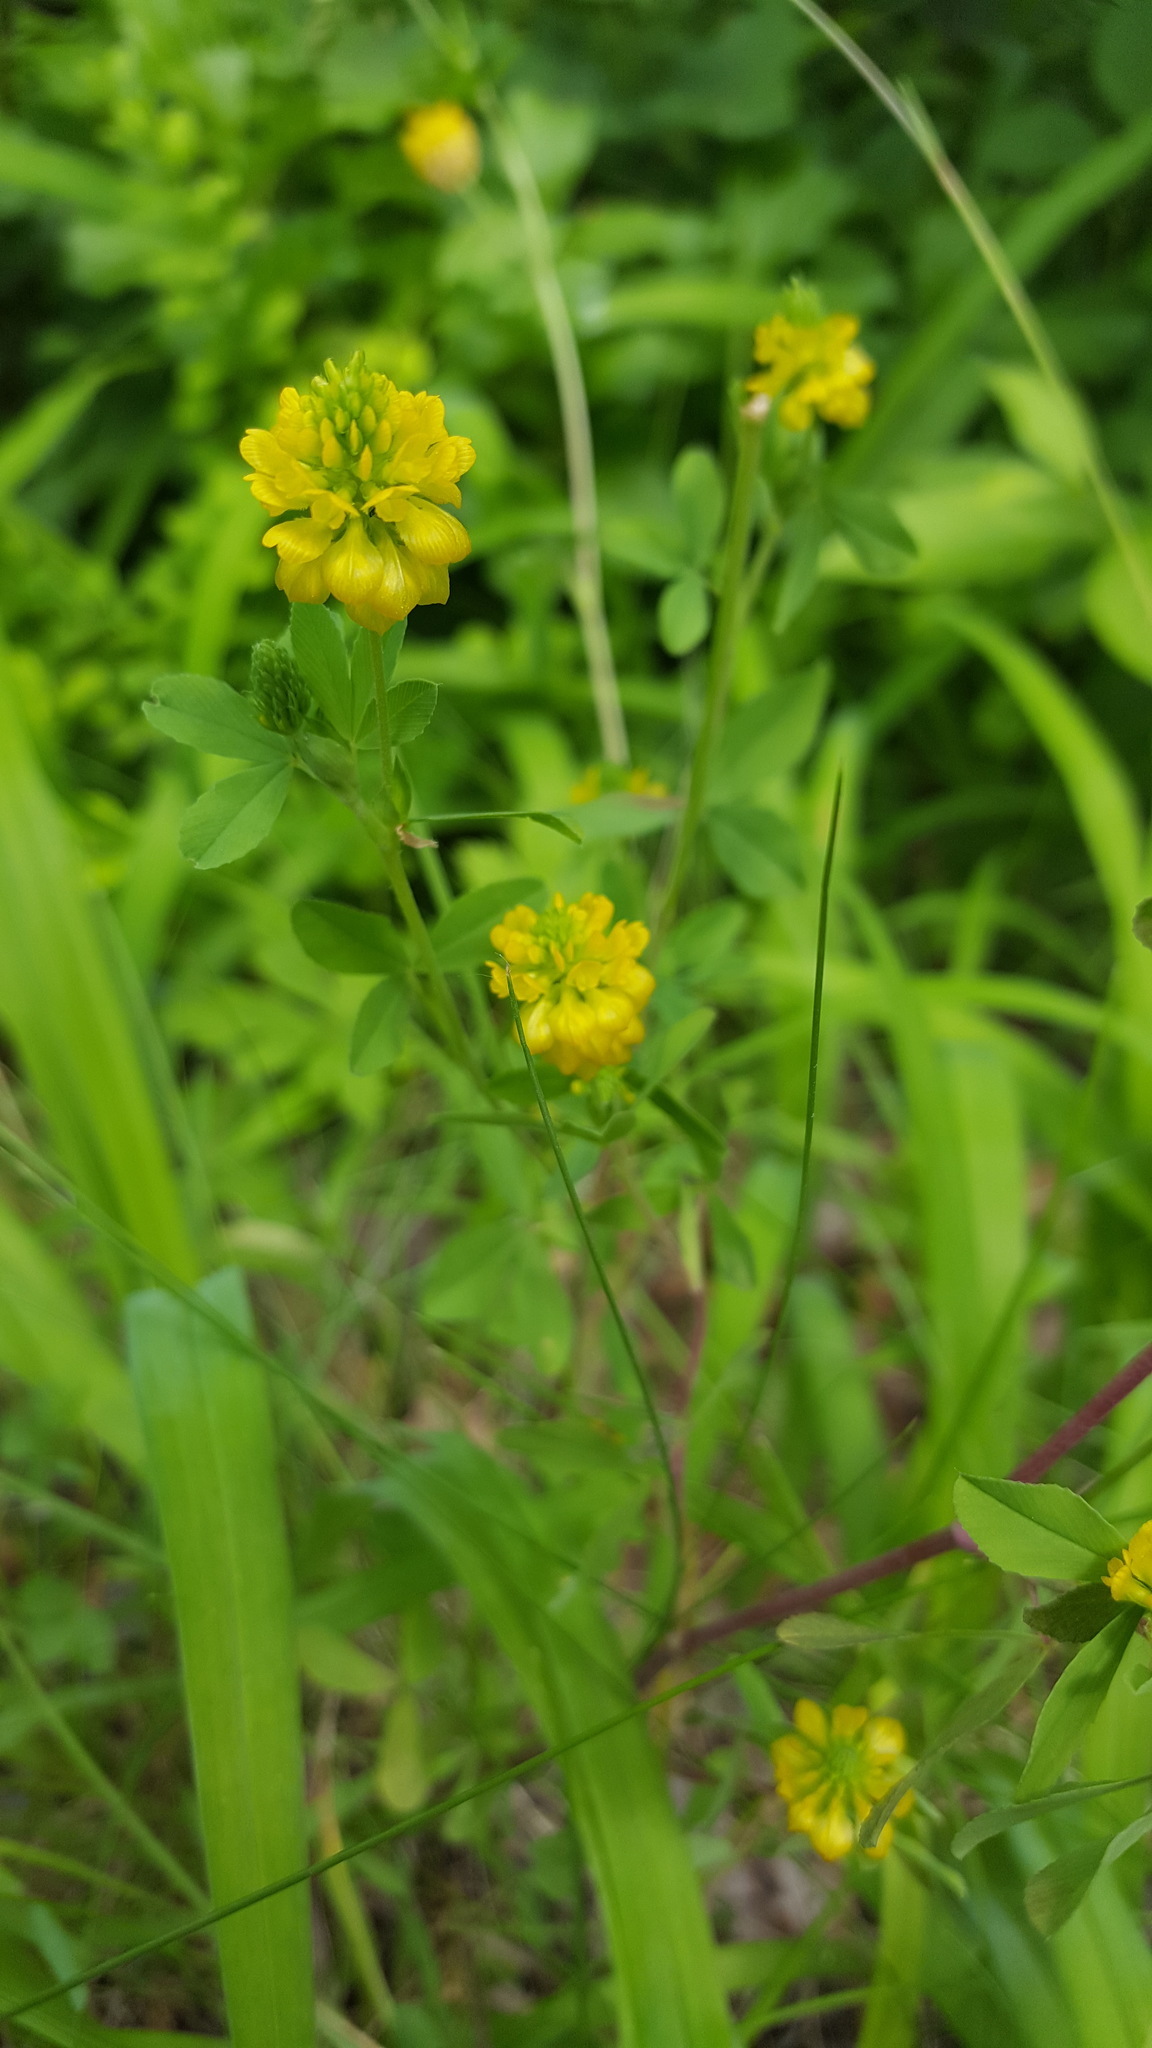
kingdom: Plantae
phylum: Tracheophyta
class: Magnoliopsida
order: Fabales
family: Fabaceae
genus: Trifolium
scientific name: Trifolium aureum
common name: Golden clover
